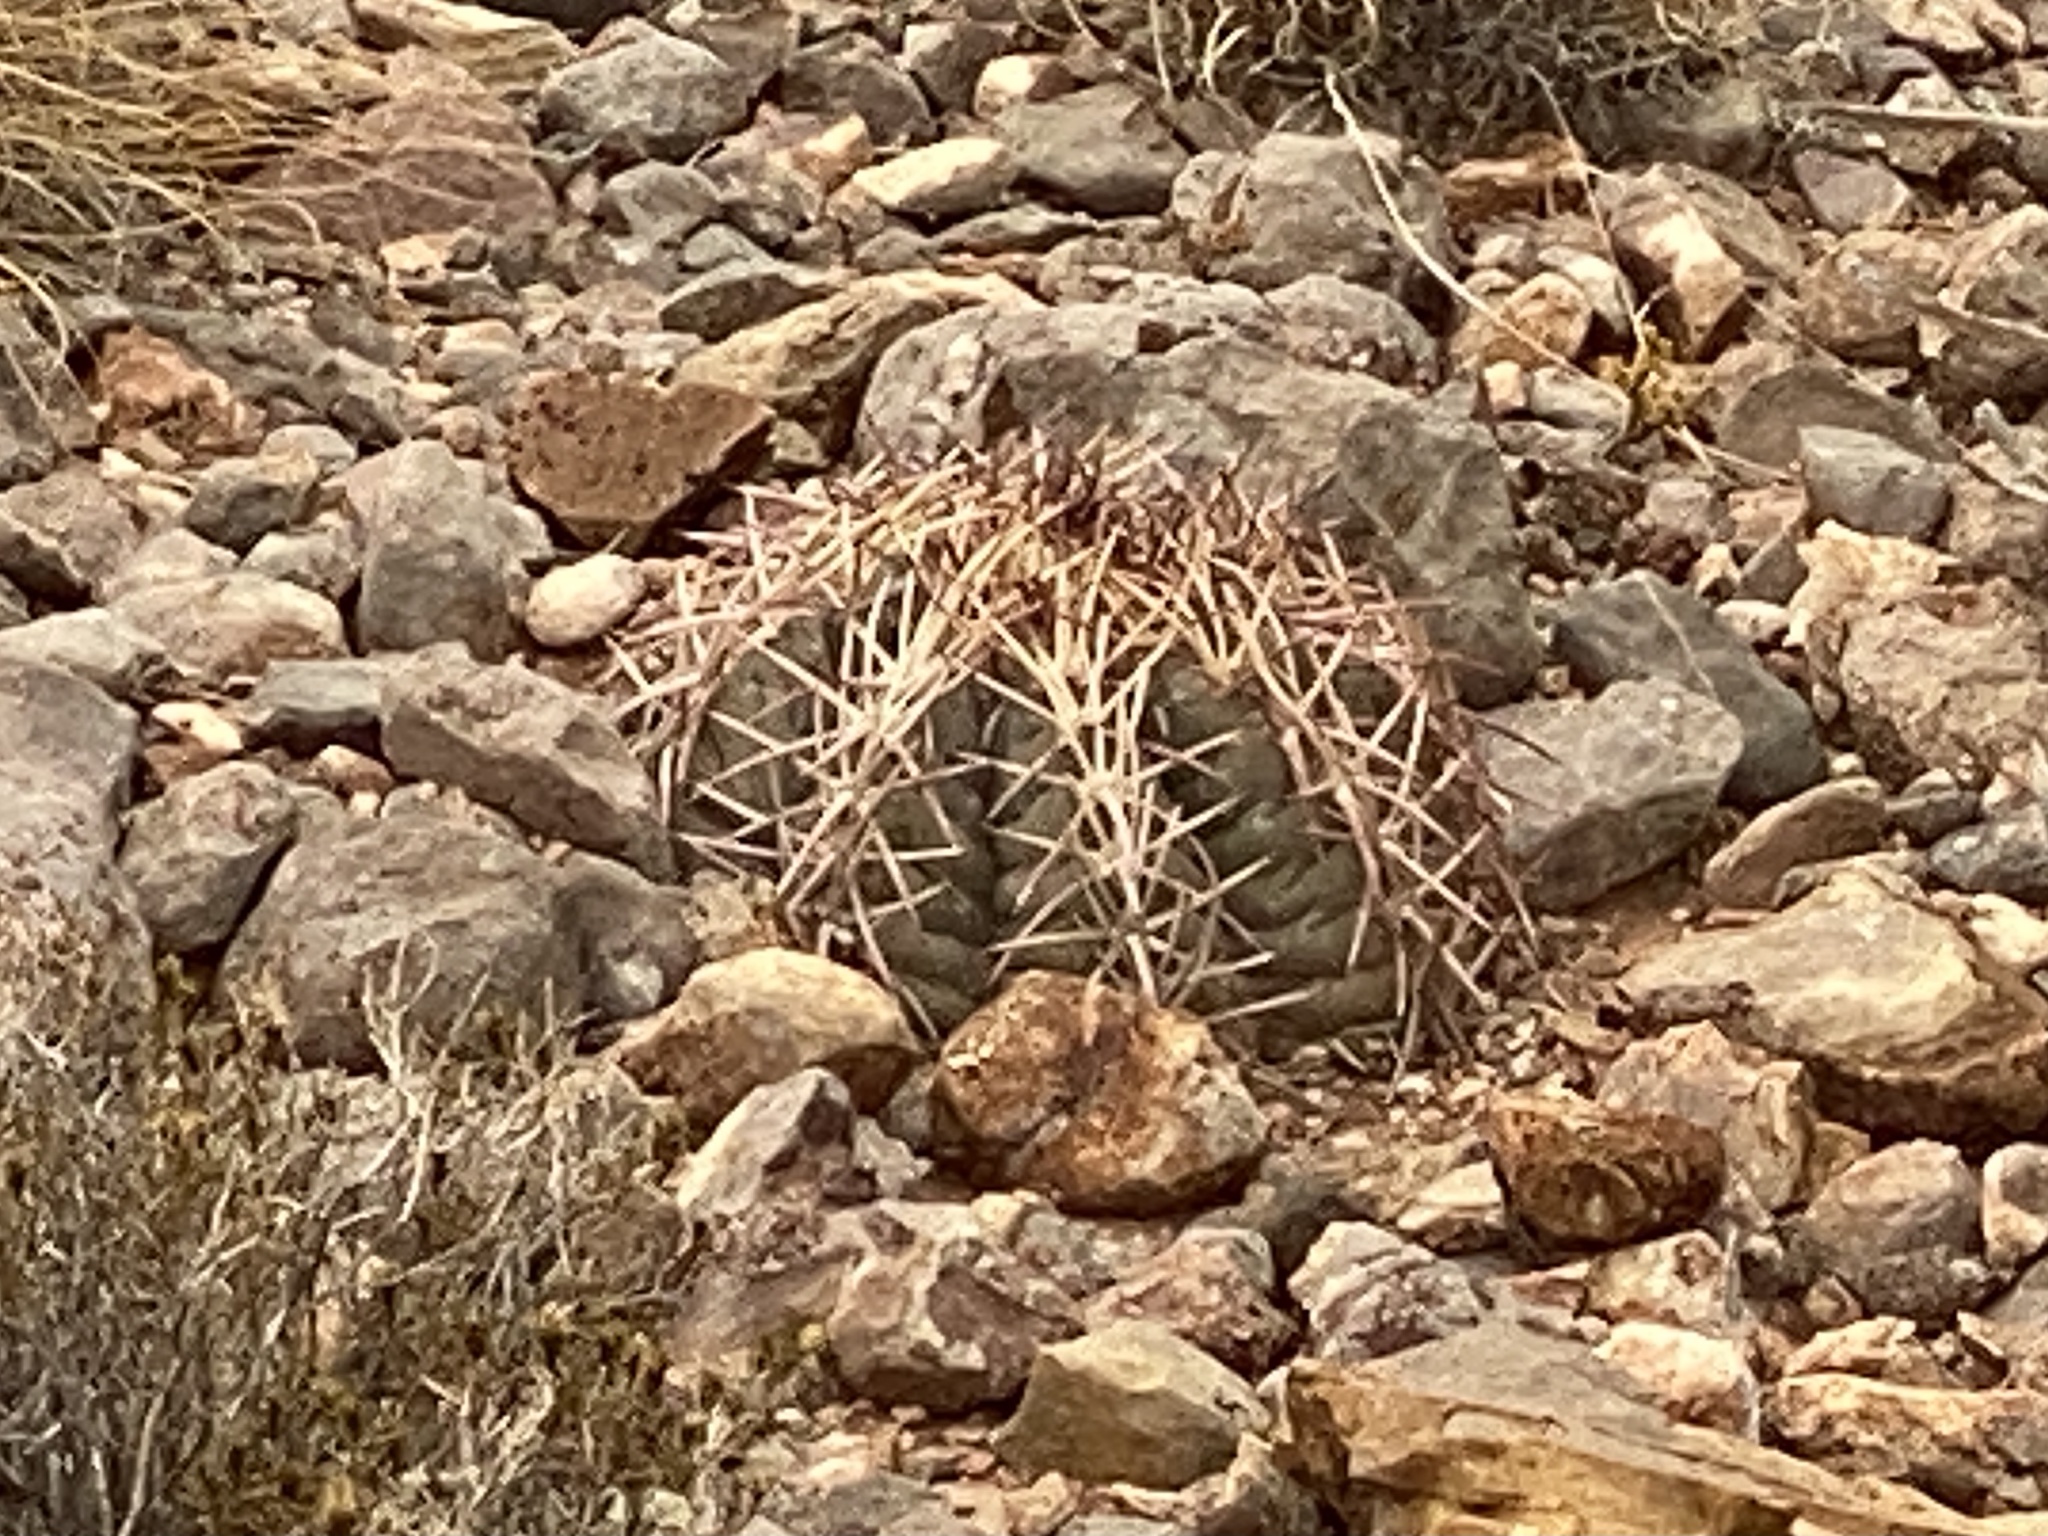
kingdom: Plantae
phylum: Tracheophyta
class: Magnoliopsida
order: Caryophyllales
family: Cactaceae
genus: Echinocactus
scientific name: Echinocactus horizonthalonius
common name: Devilshead
